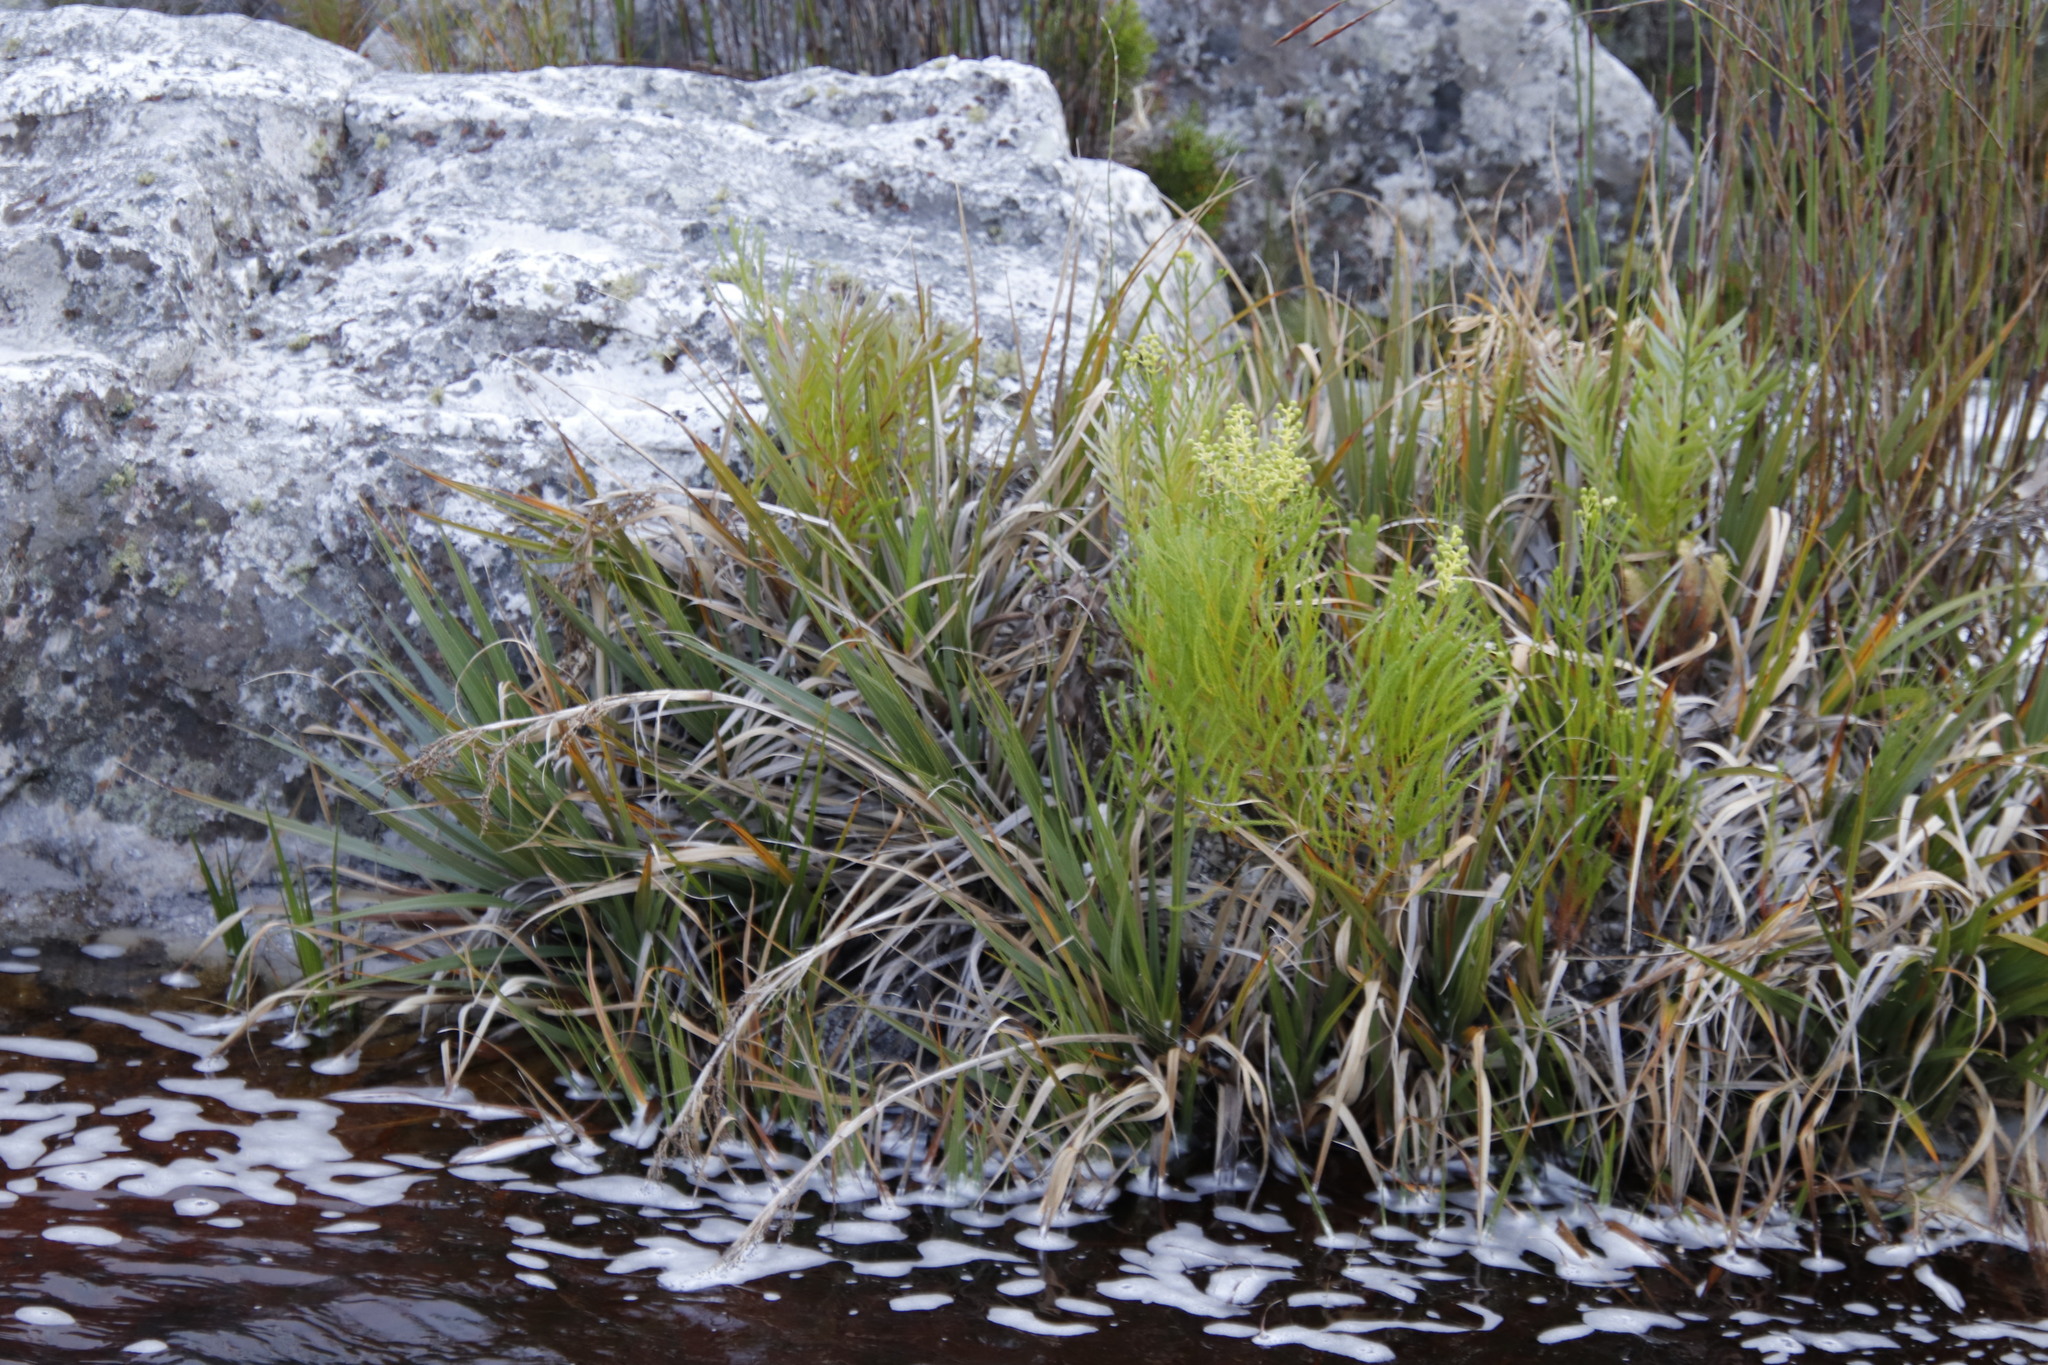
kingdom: Plantae
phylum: Tracheophyta
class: Liliopsida
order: Poales
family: Thurniaceae
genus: Prionium
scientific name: Prionium serratum
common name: Palmiet
